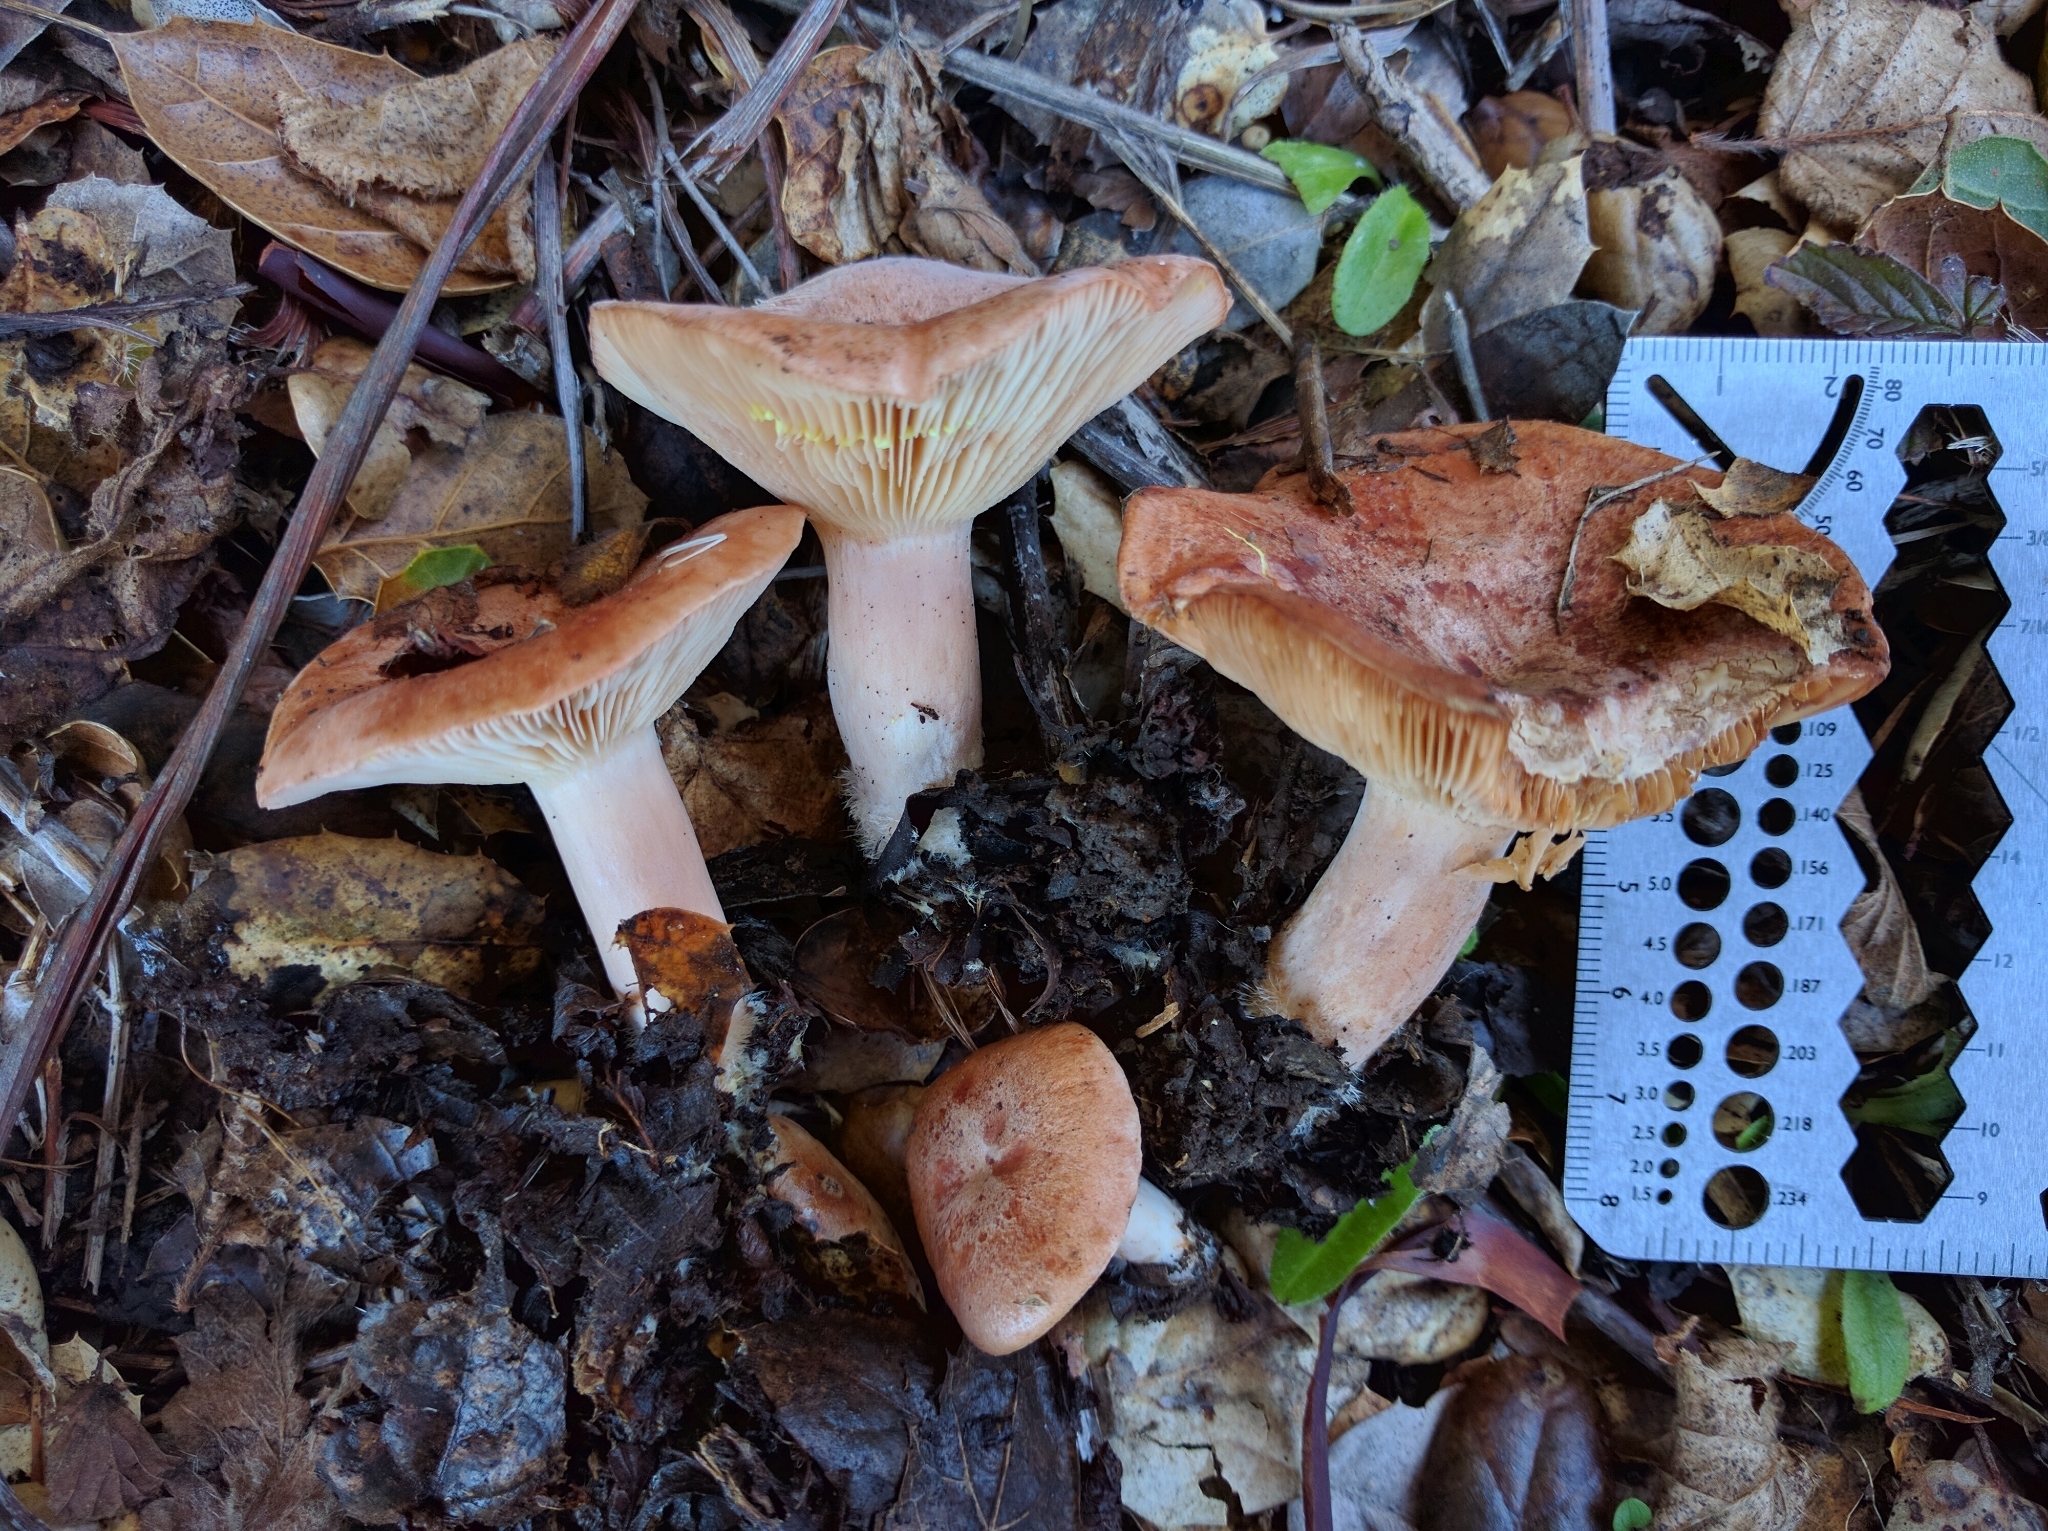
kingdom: Fungi
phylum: Basidiomycota
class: Agaricomycetes
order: Russulales
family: Russulaceae
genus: Lactarius
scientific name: Lactarius xanthogalactus
